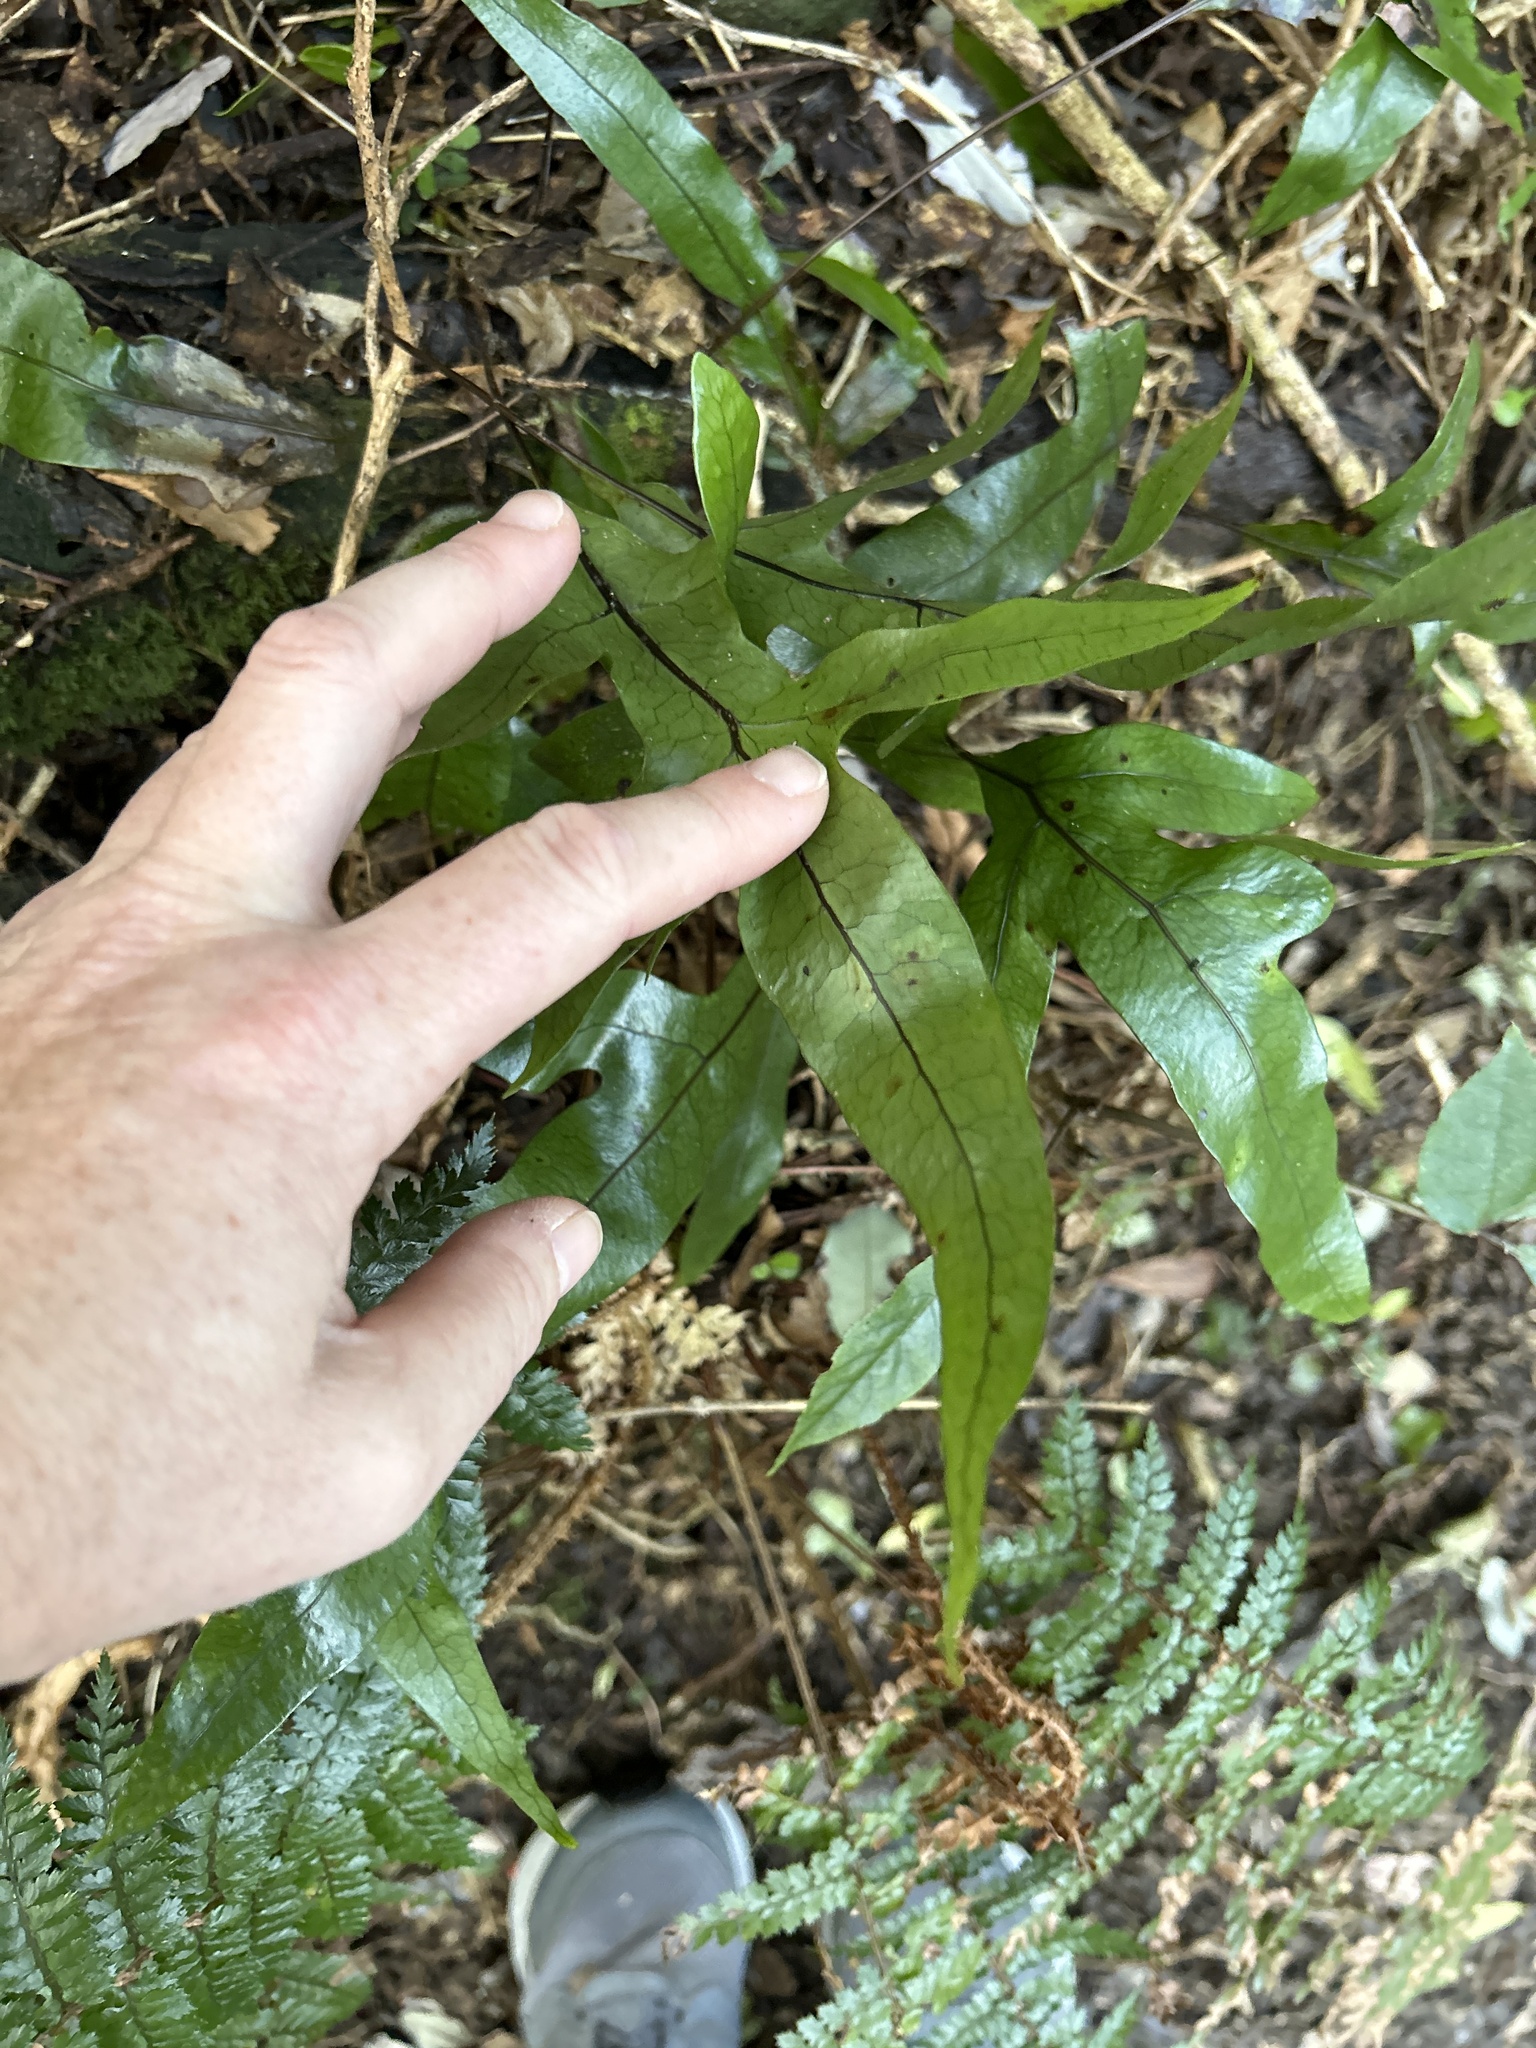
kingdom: Plantae
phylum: Tracheophyta
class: Polypodiopsida
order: Polypodiales
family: Polypodiaceae
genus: Lecanopteris
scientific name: Lecanopteris pustulata
